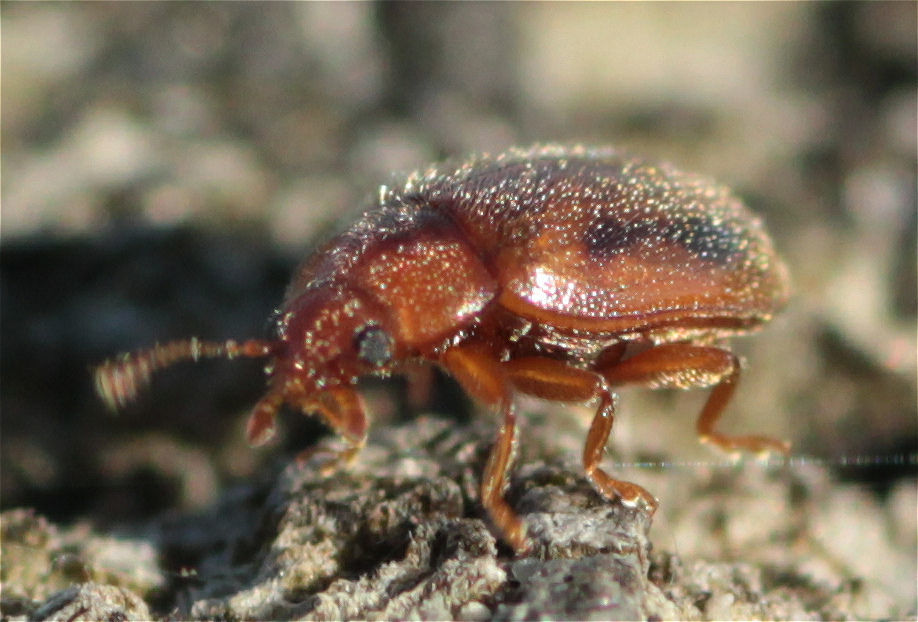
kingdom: Animalia
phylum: Arthropoda
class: Insecta
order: Coleoptera
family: Coccinellidae
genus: Rhyzobius
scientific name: Rhyzobius litura
